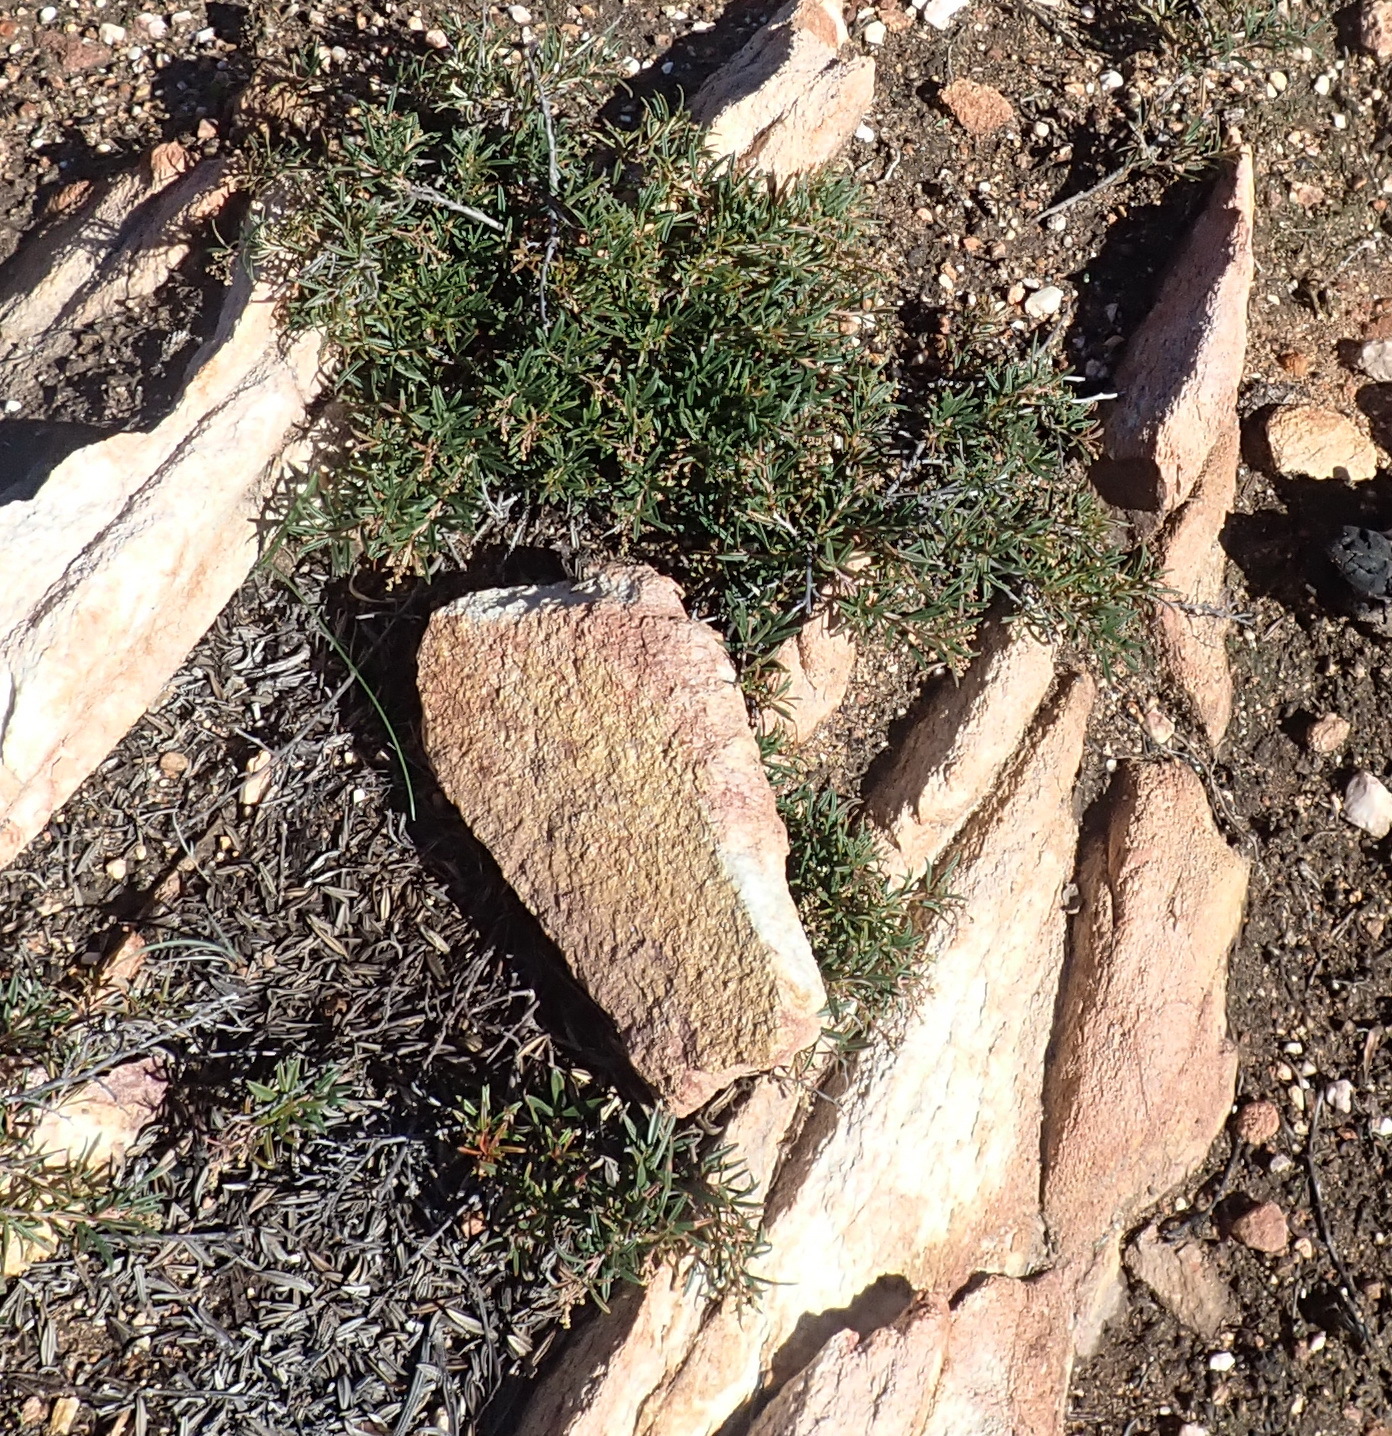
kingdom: Plantae
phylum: Tracheophyta
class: Magnoliopsida
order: Sapindales
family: Anacardiaceae
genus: Searsia
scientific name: Searsia rosmarinifolia
